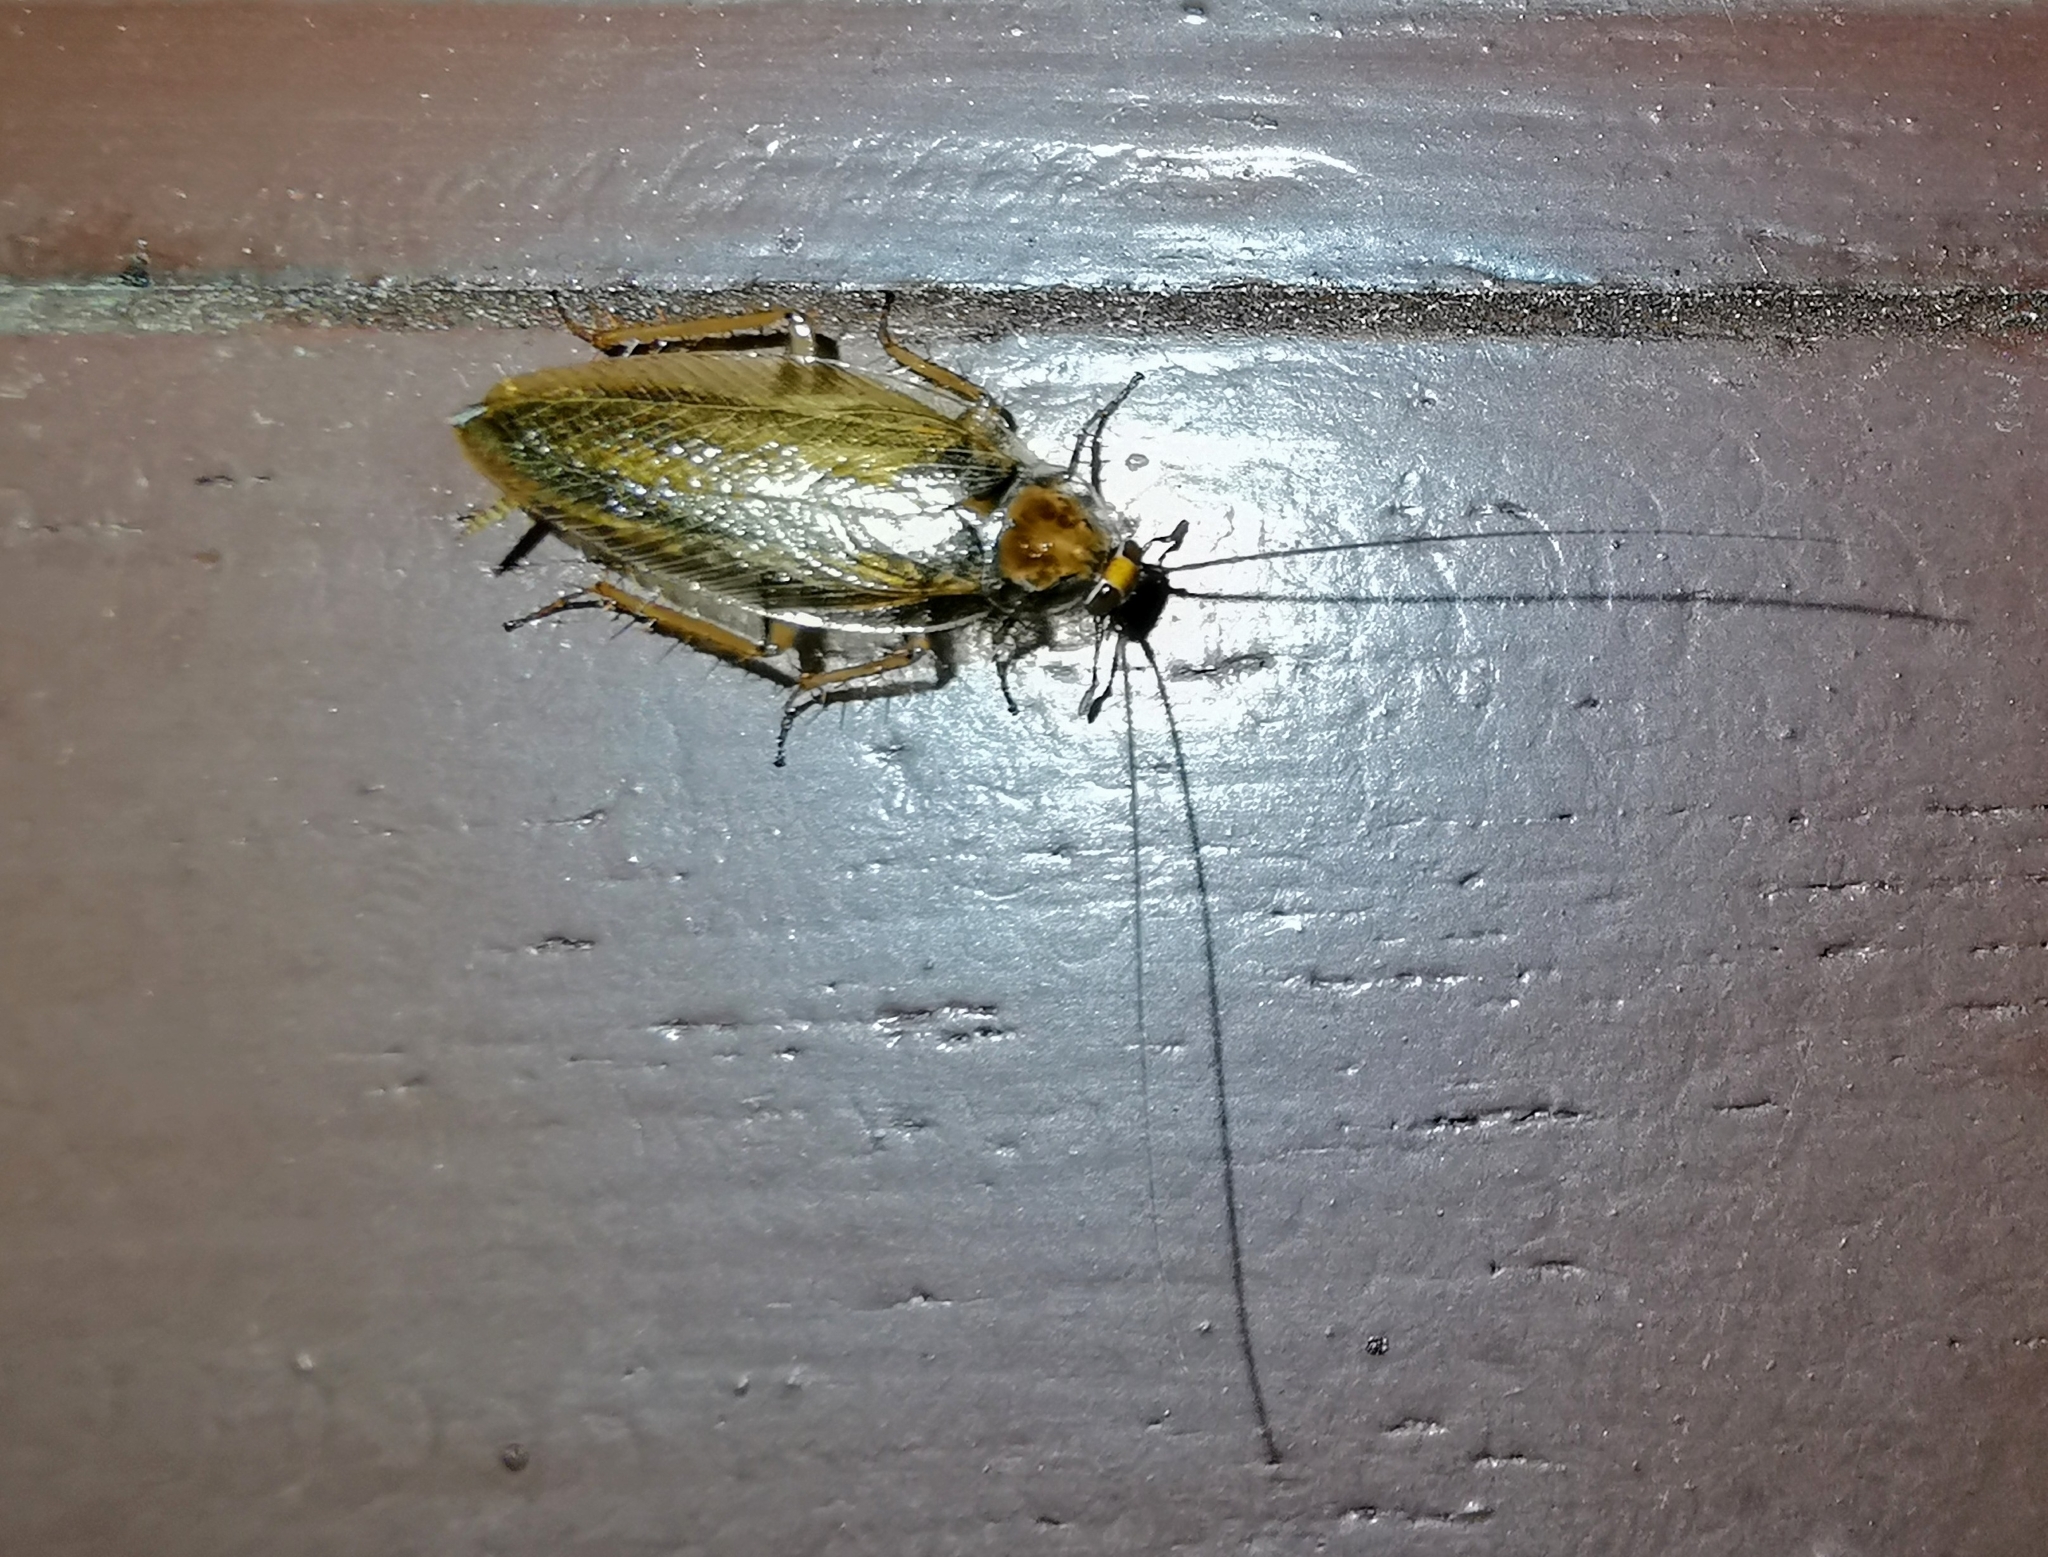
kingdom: Animalia
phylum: Arthropoda
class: Insecta
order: Blattodea
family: Ectobiidae
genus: Ectobius
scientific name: Ectobius vittiventris
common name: Garden cockroach
